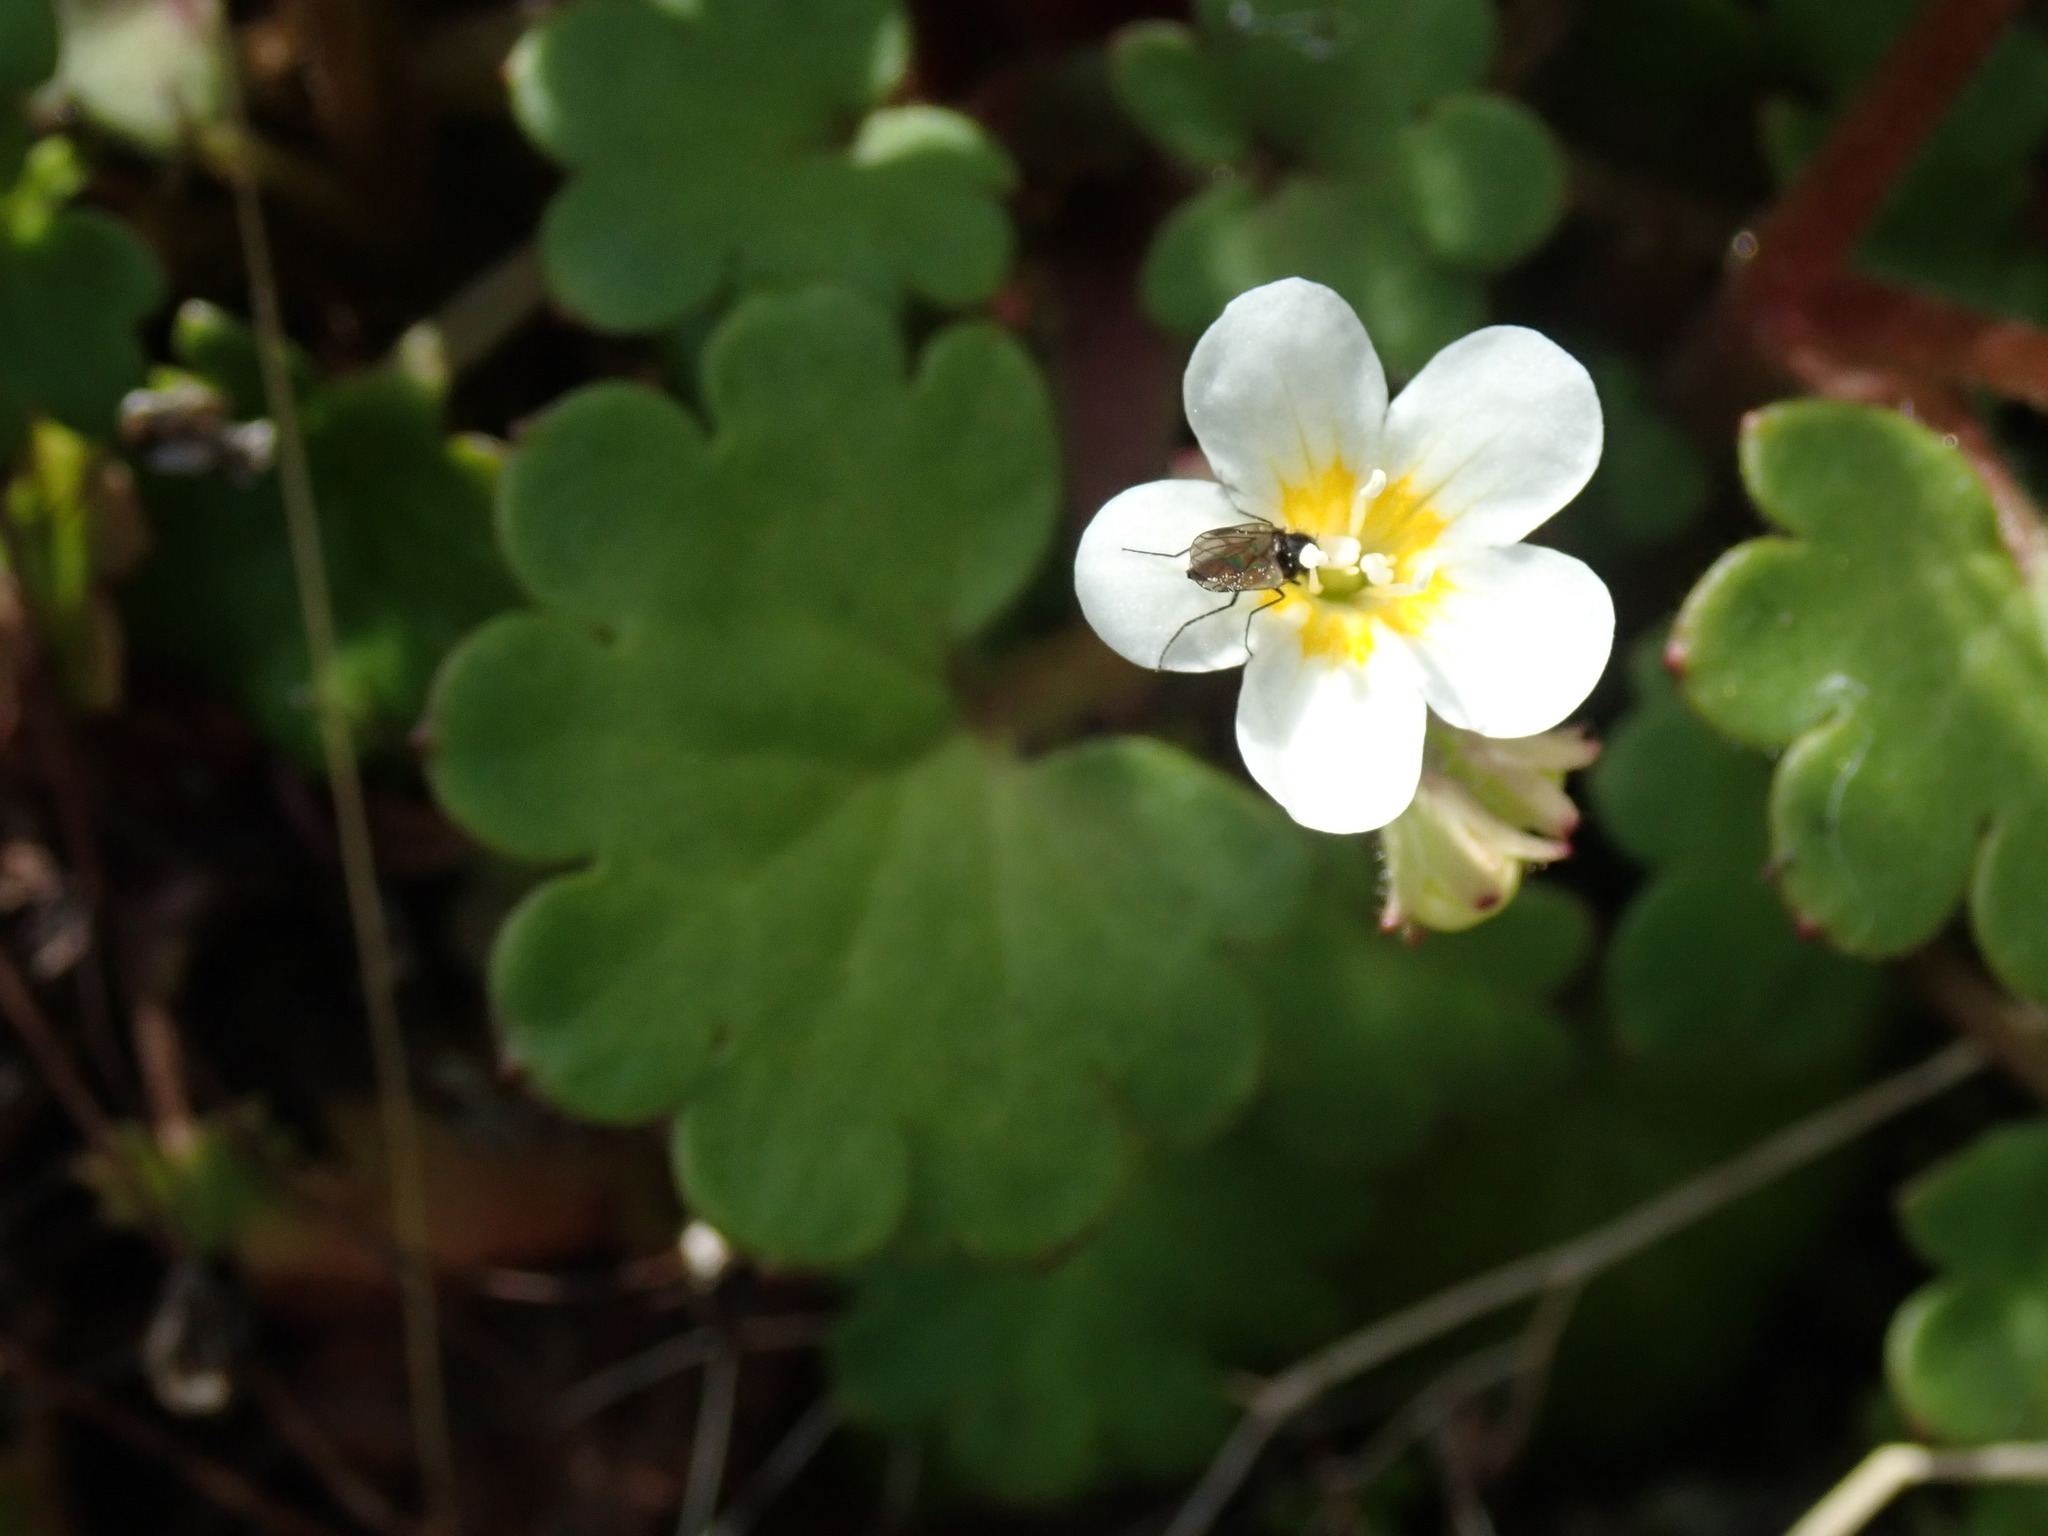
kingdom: Plantae
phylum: Tracheophyta
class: Magnoliopsida
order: Boraginales
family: Hydrophyllaceae
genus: Romanzoffia
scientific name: Romanzoffia sitchensis
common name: Sitka mistmaid
